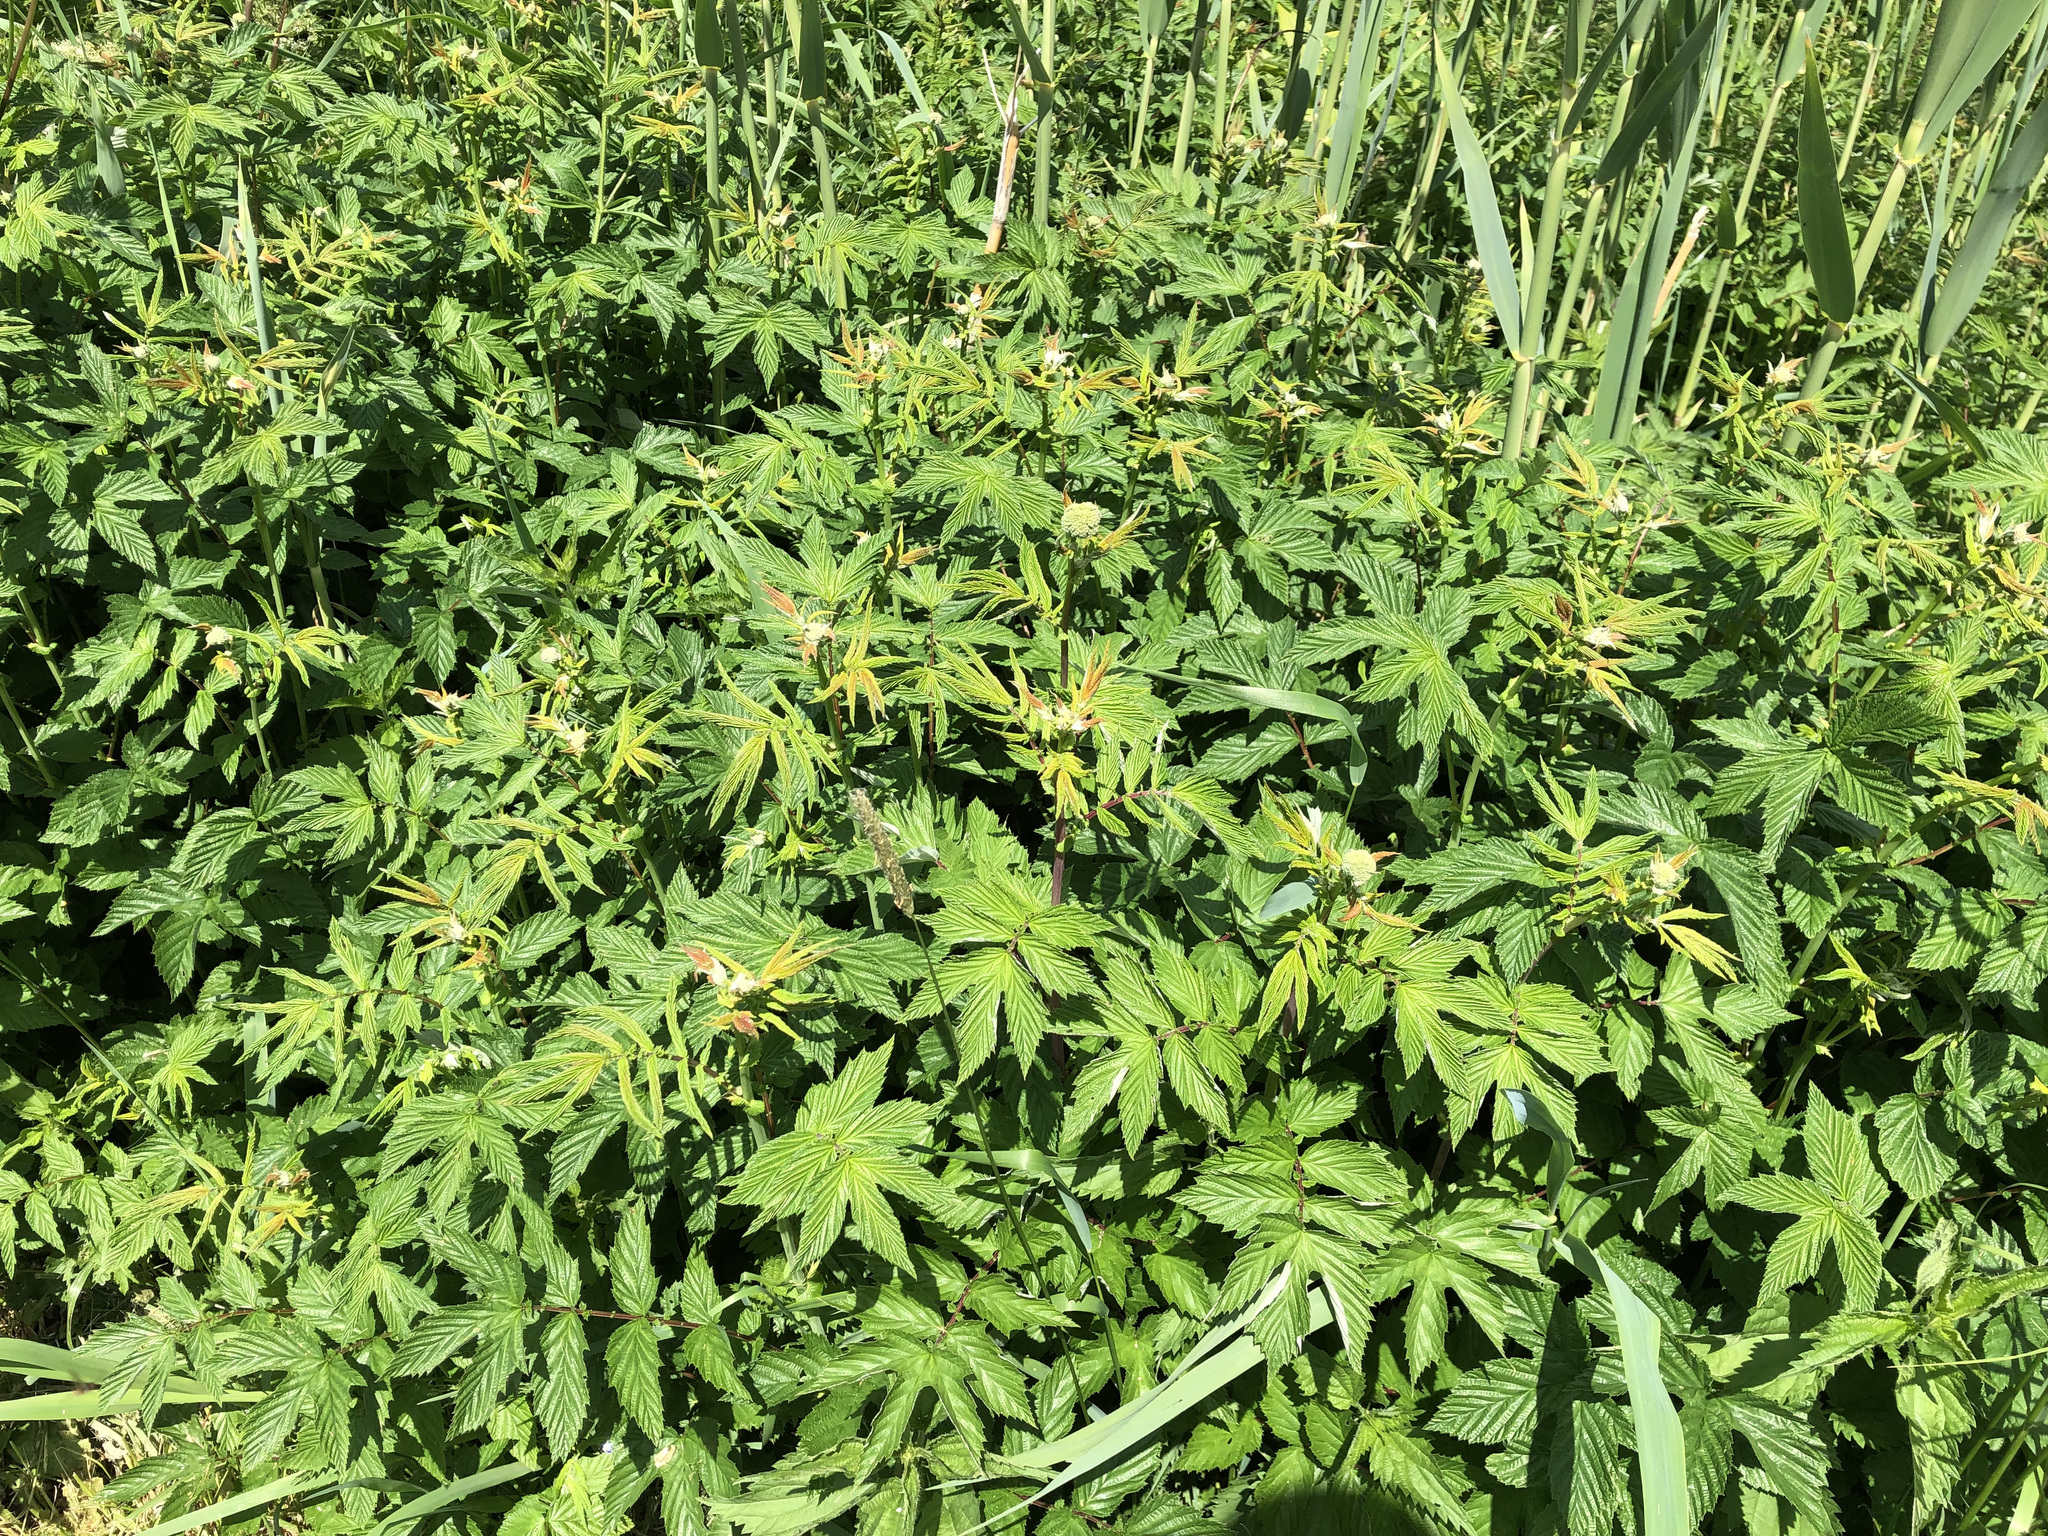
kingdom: Plantae
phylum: Tracheophyta
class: Magnoliopsida
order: Rosales
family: Rosaceae
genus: Filipendula
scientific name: Filipendula ulmaria
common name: Meadowsweet
